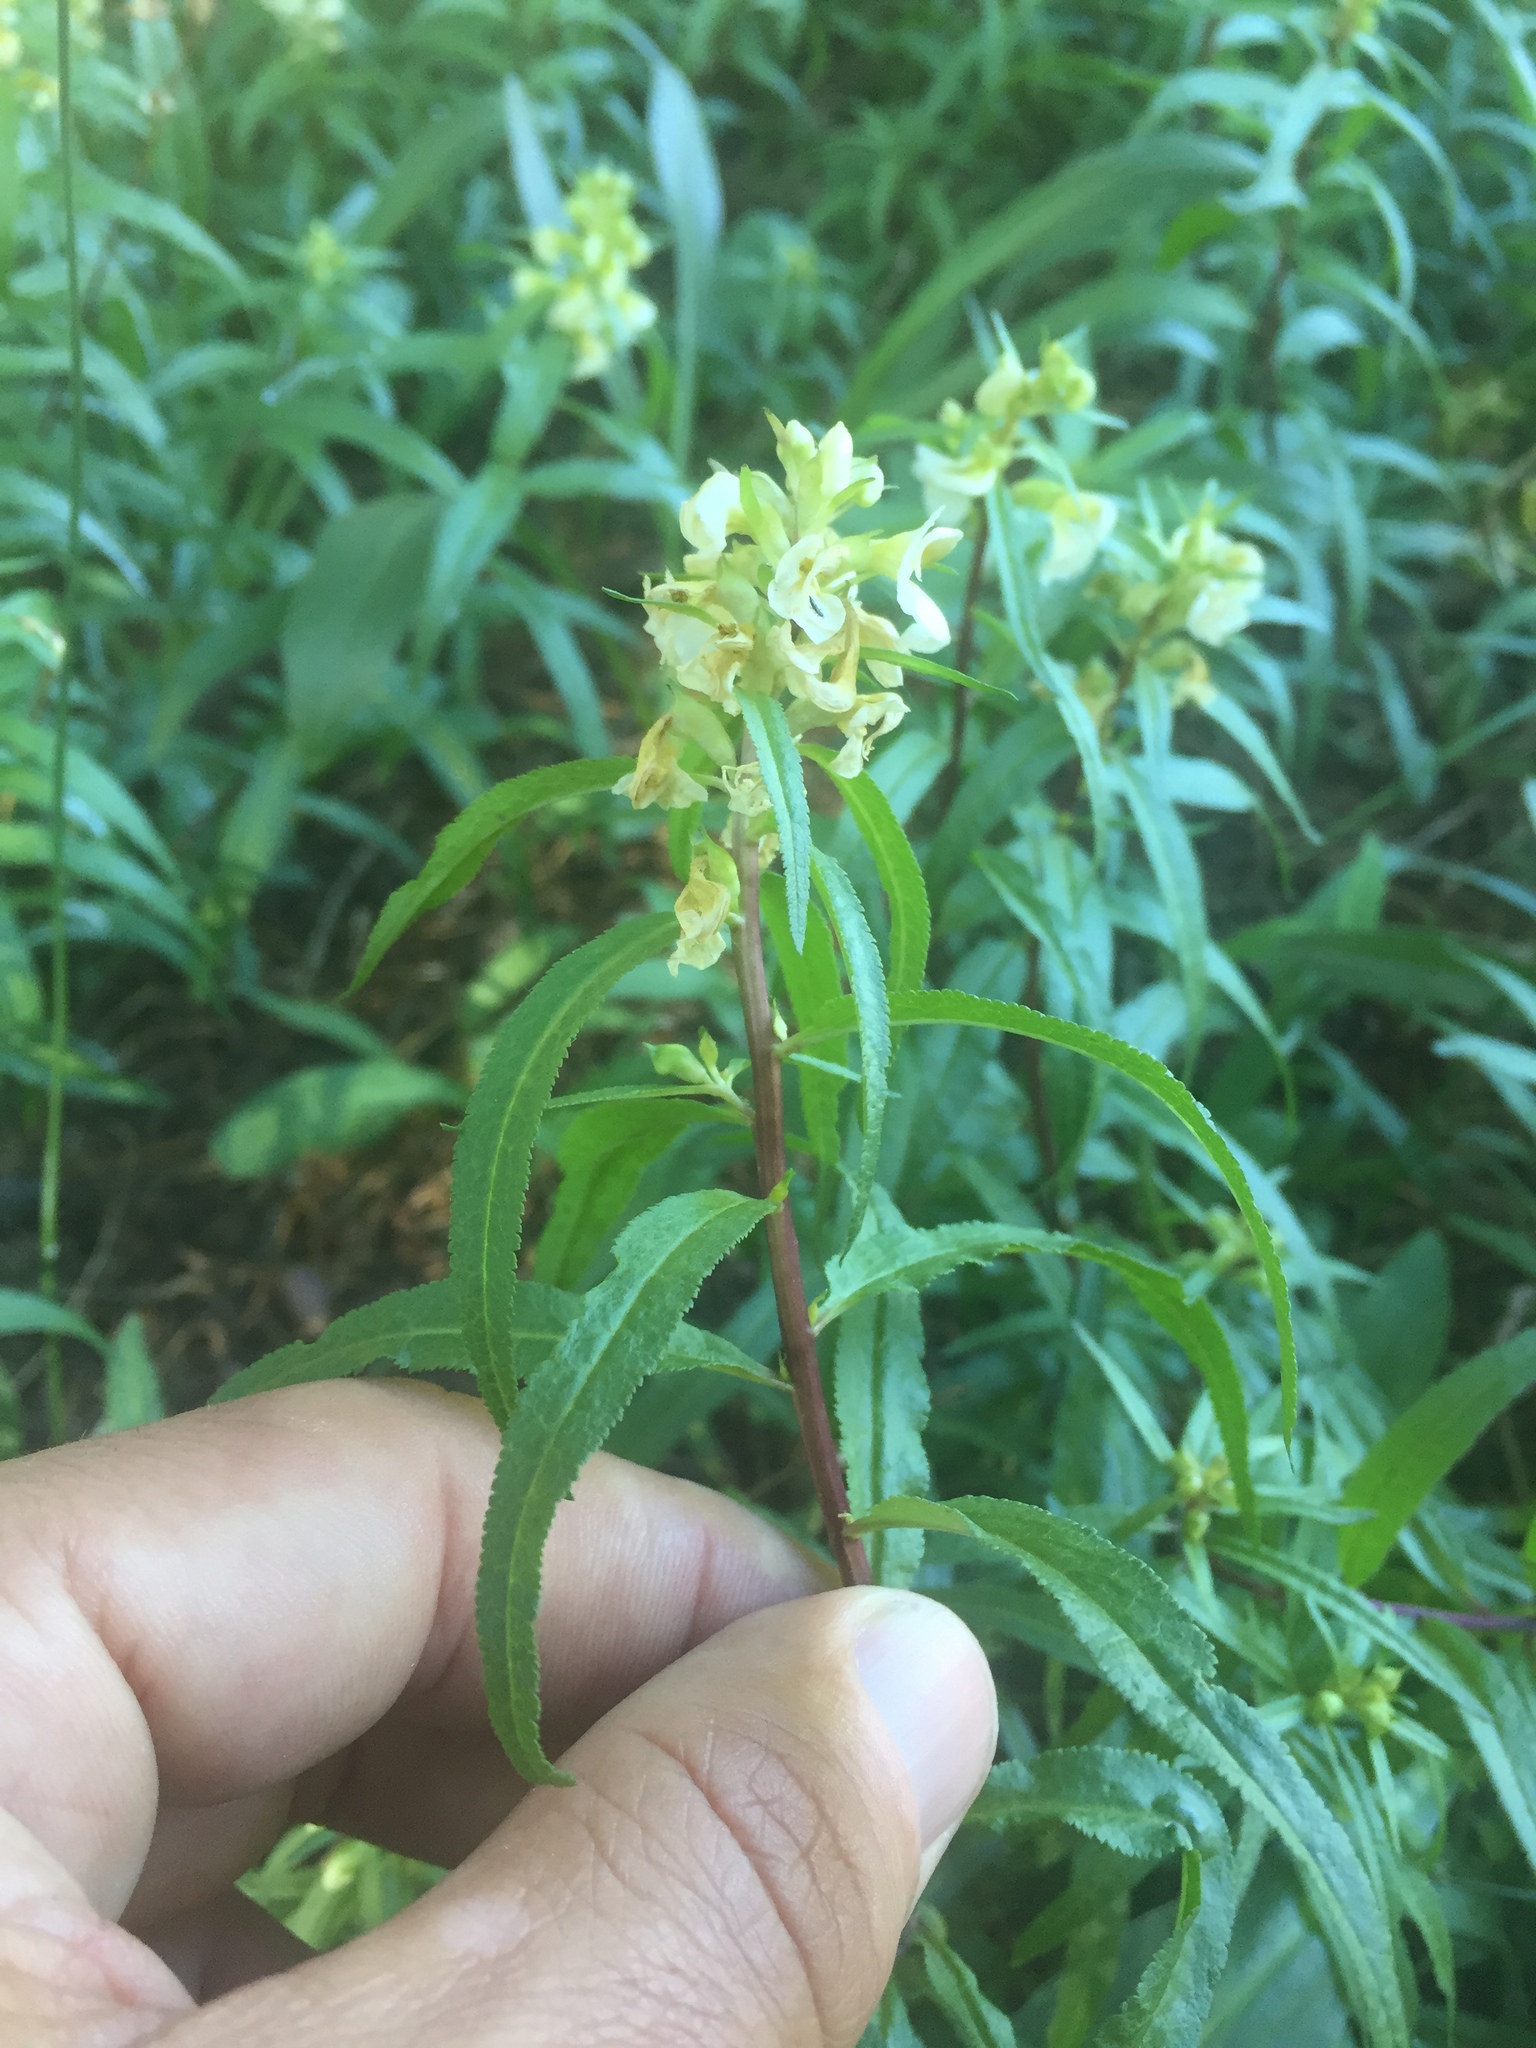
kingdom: Plantae
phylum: Tracheophyta
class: Magnoliopsida
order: Lamiales
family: Orobanchaceae
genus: Pedicularis
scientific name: Pedicularis racemosa
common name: Leafy lousewort
